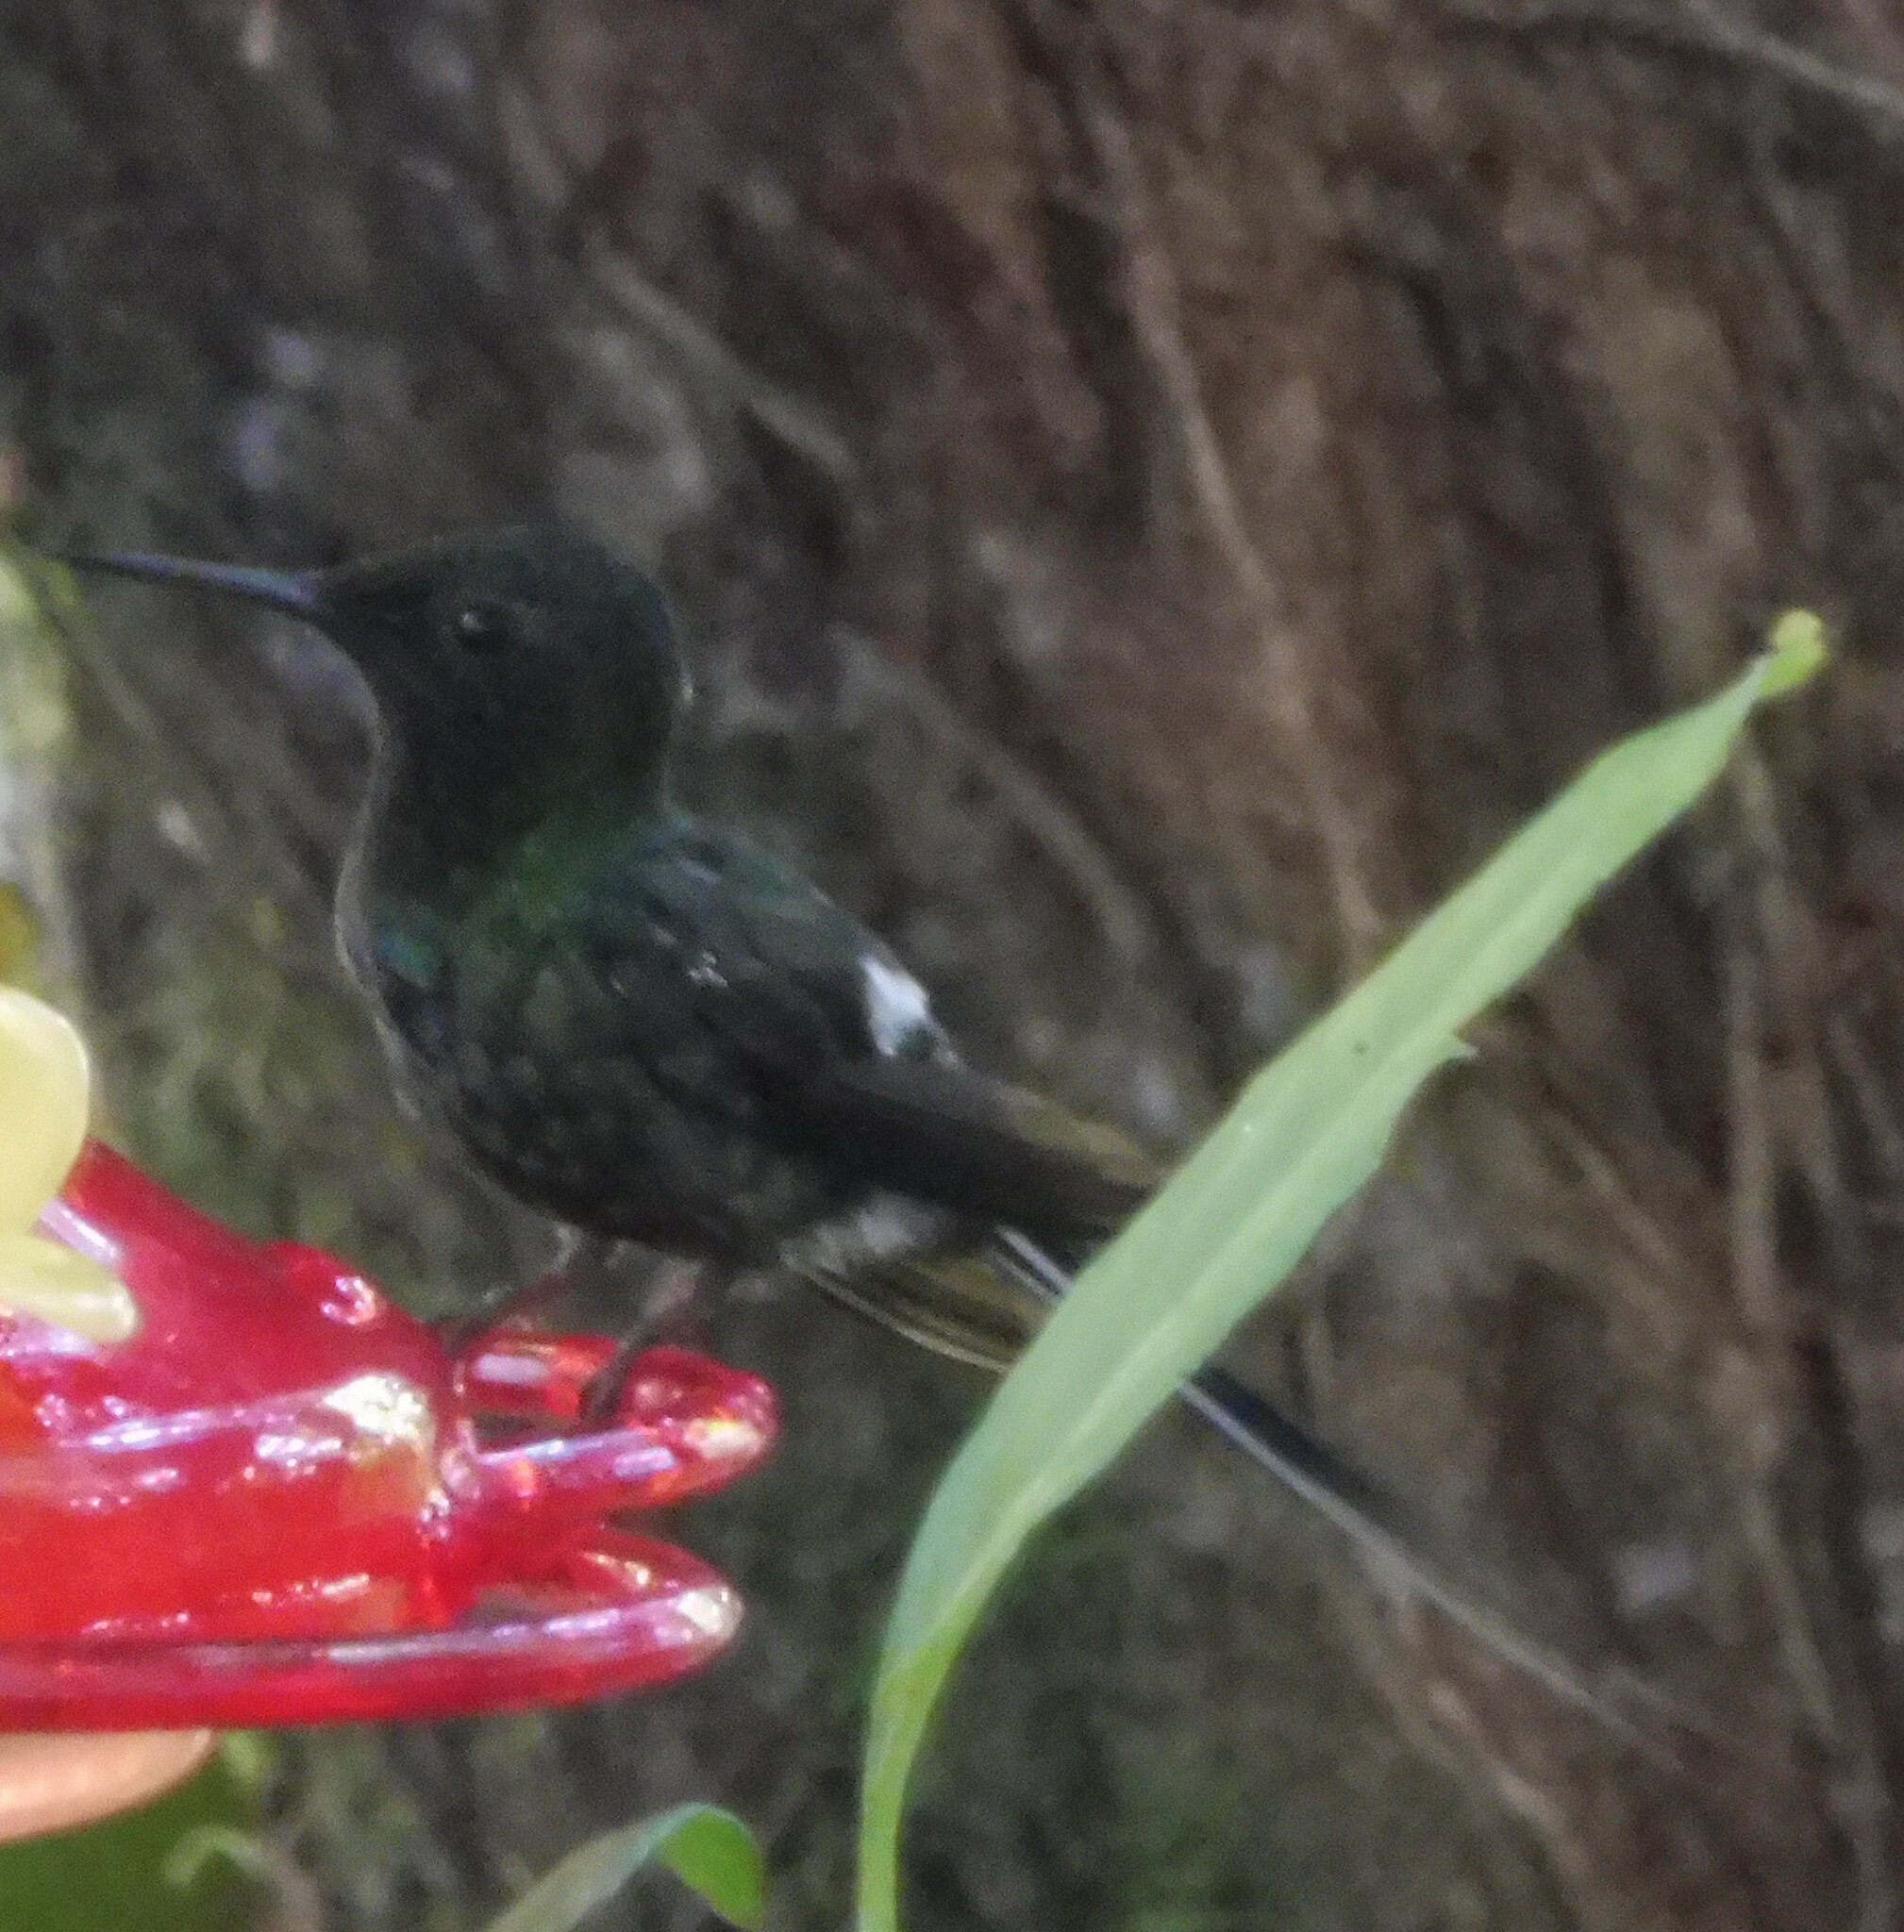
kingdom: Animalia
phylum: Chordata
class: Aves
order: Apodiformes
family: Trochilidae
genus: Discosura
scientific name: Discosura conversii
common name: Green thorntail
